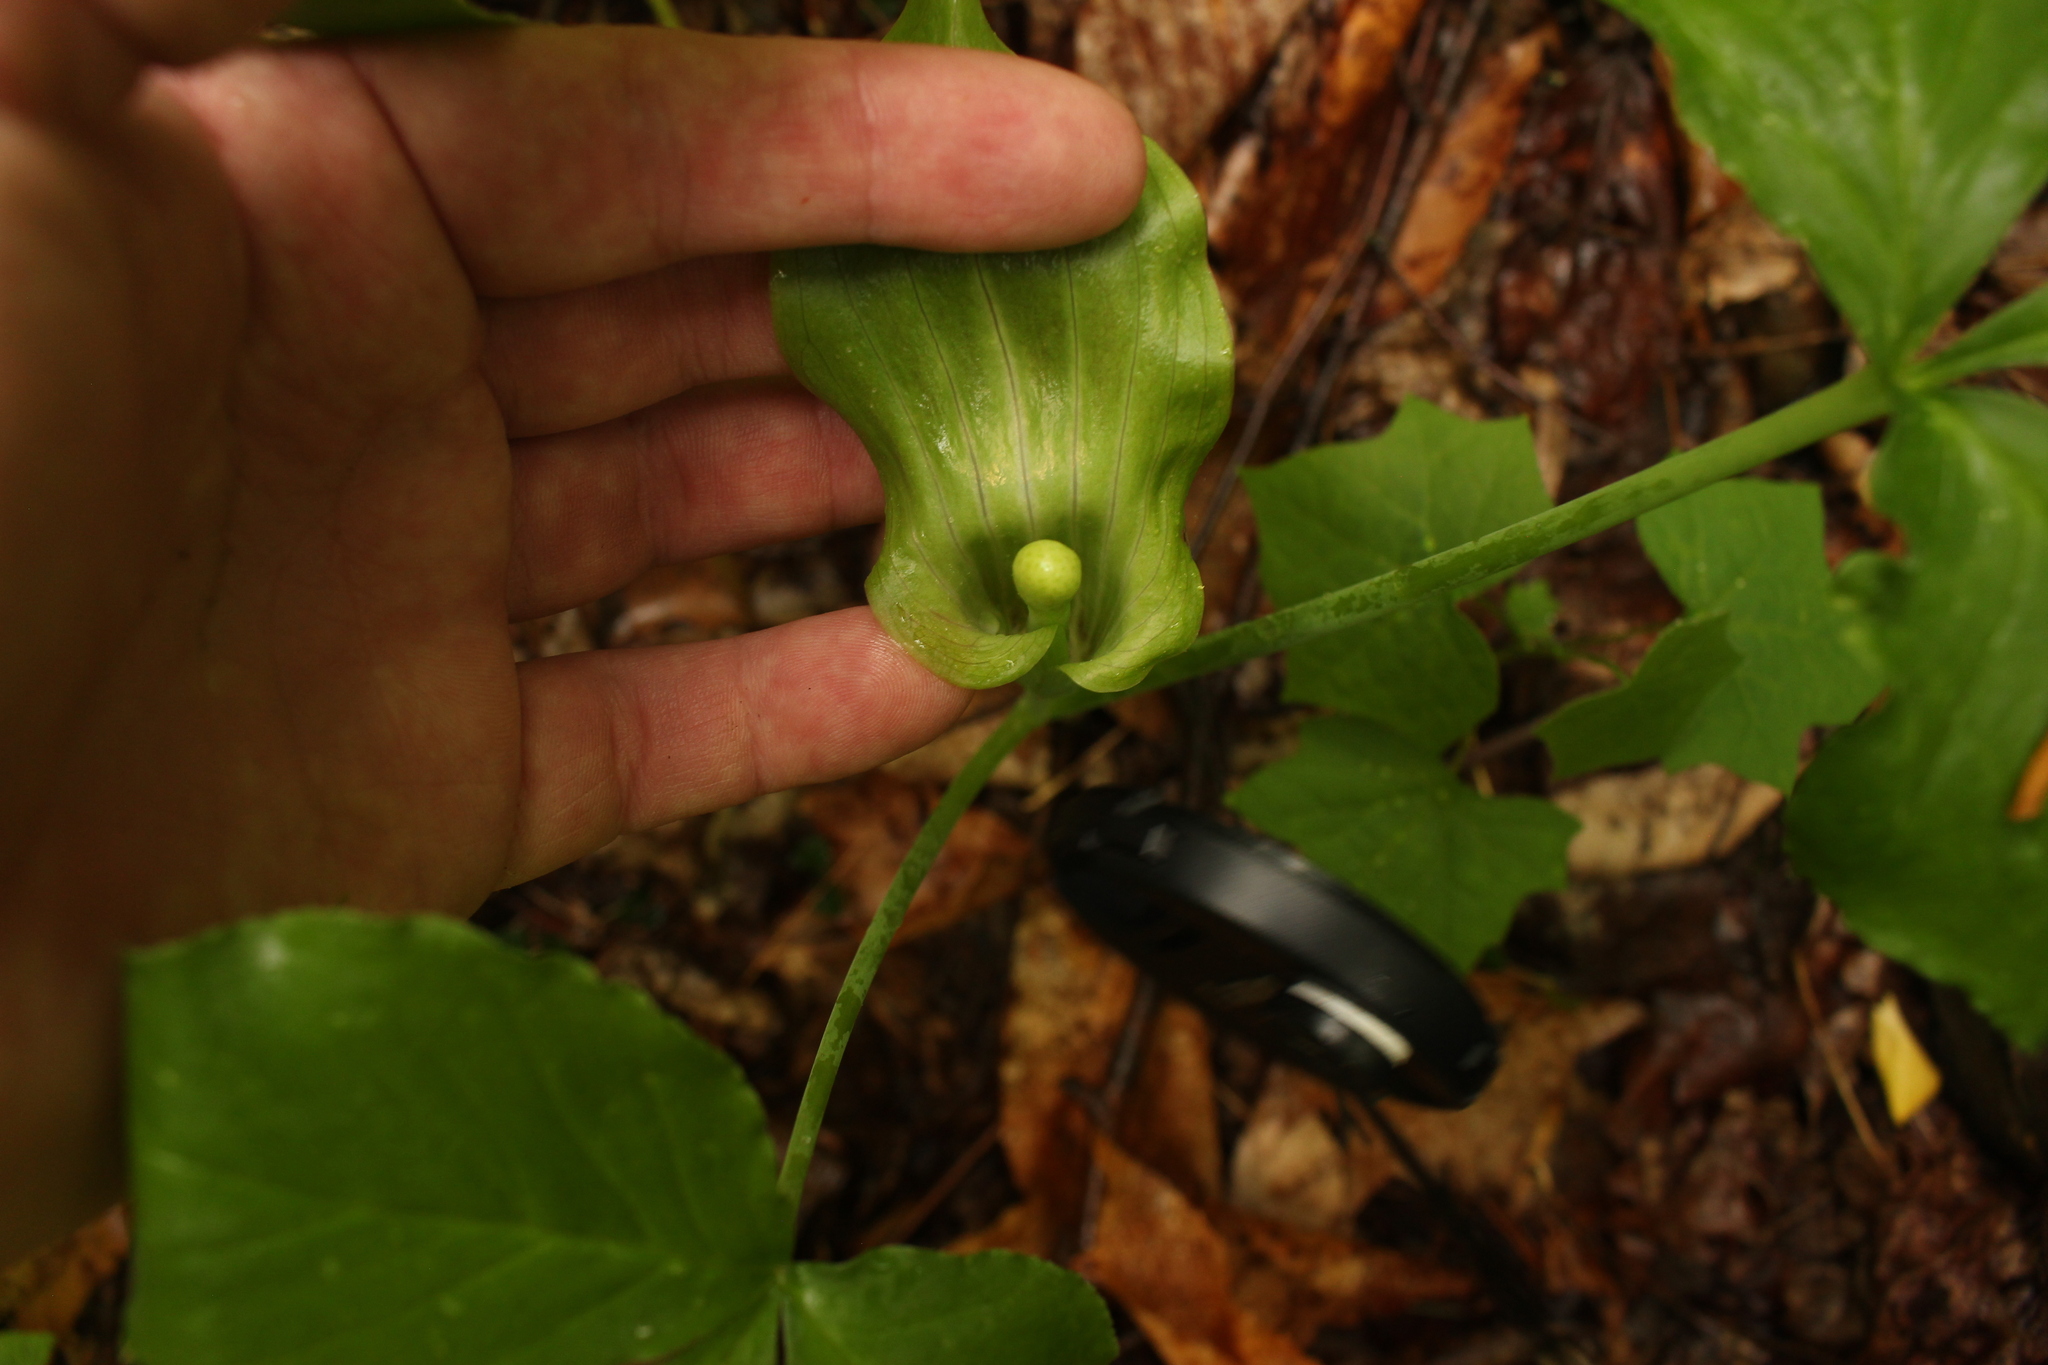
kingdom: Plantae
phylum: Tracheophyta
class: Liliopsida
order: Alismatales
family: Araceae
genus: Arisaema
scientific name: Arisaema triphyllum
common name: Jack-in-the-pulpit
